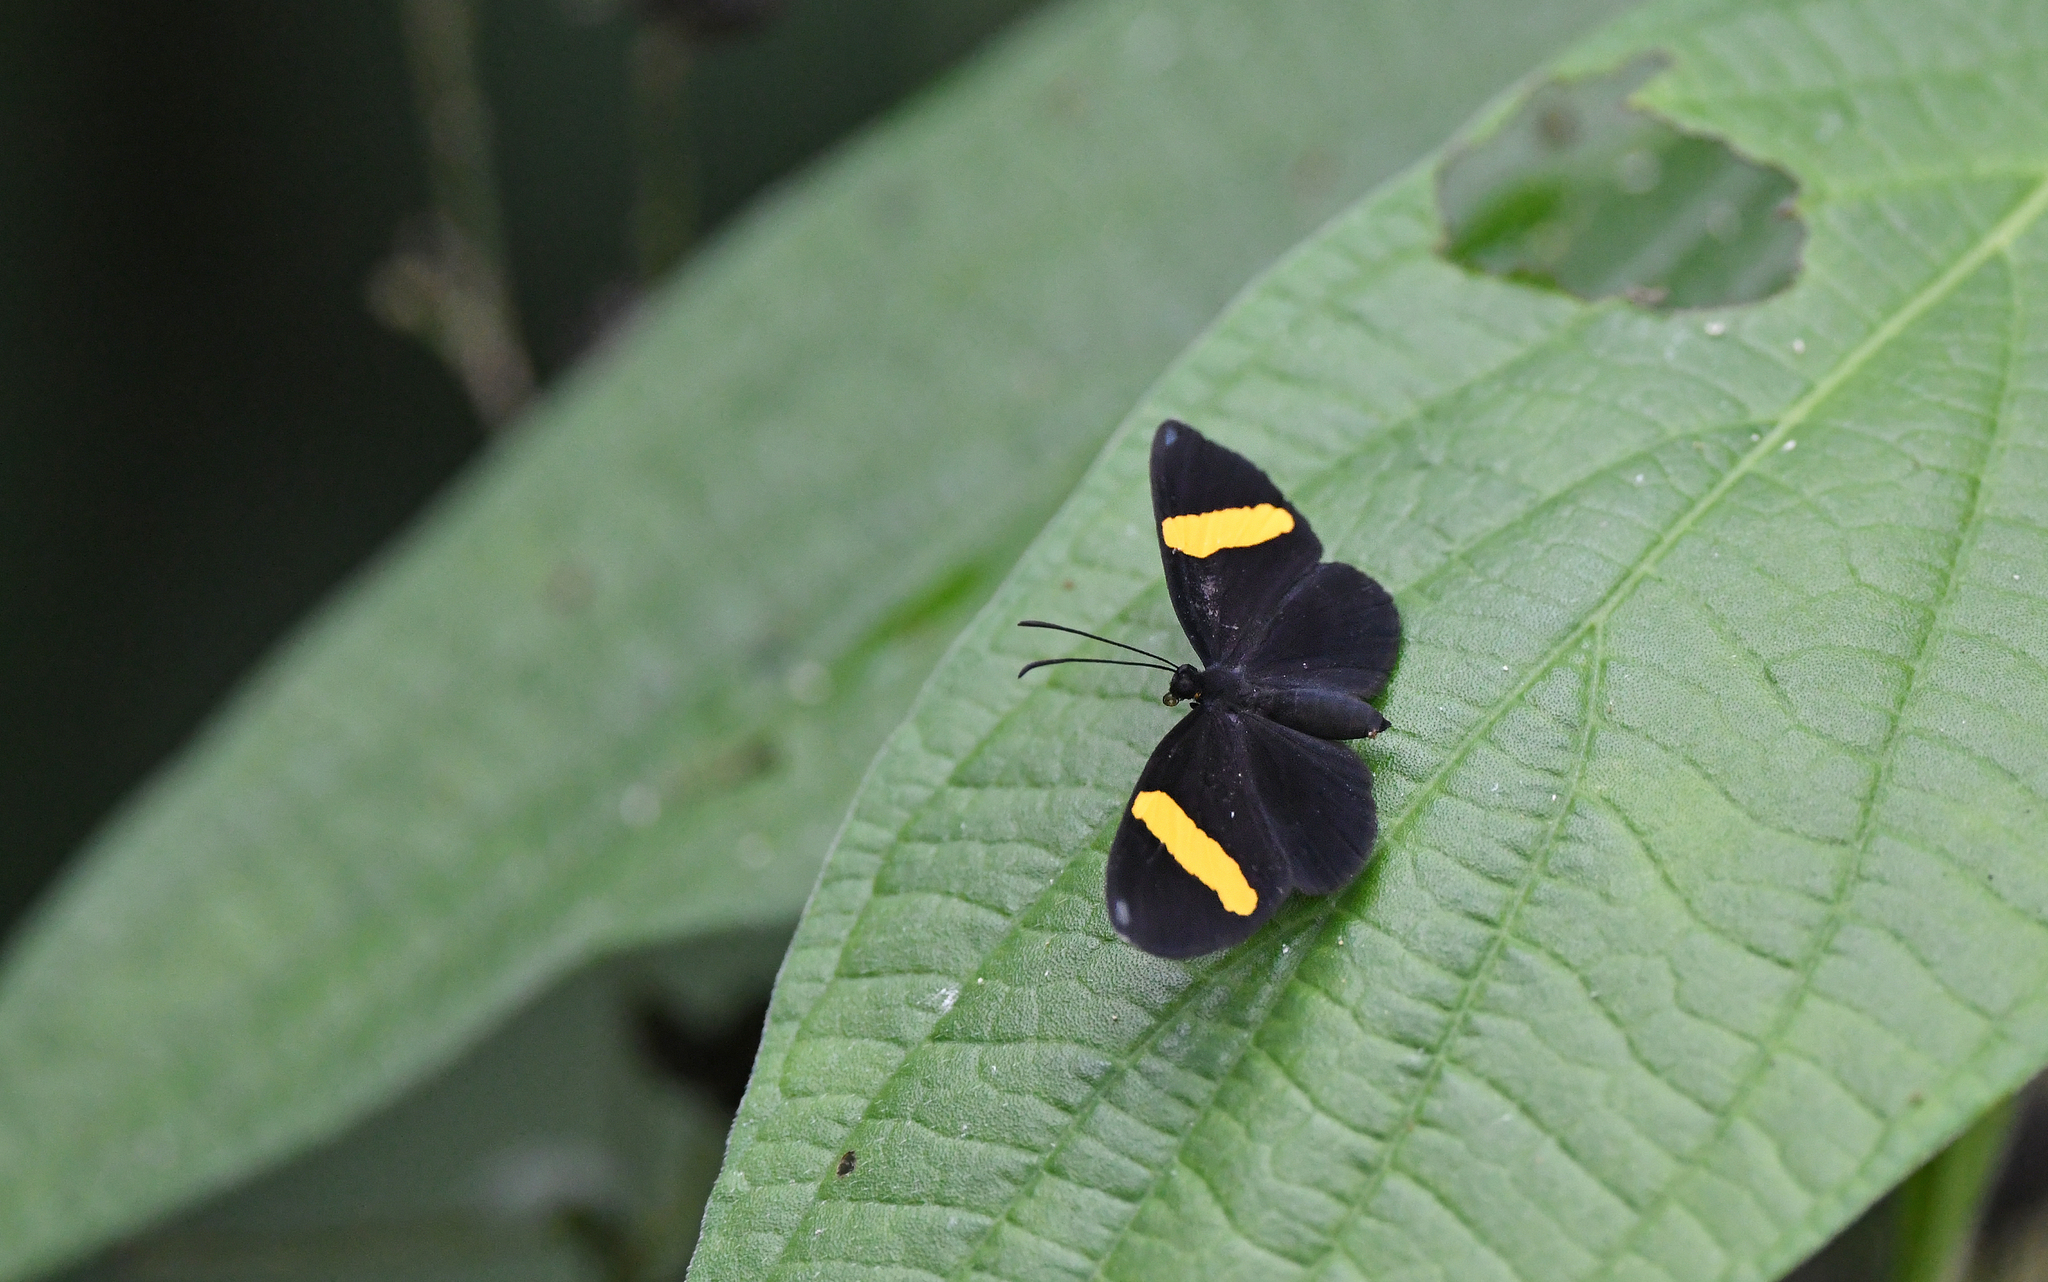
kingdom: Animalia
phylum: Arthropoda
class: Insecta
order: Lepidoptera
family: Riodinidae
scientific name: Riodinidae
